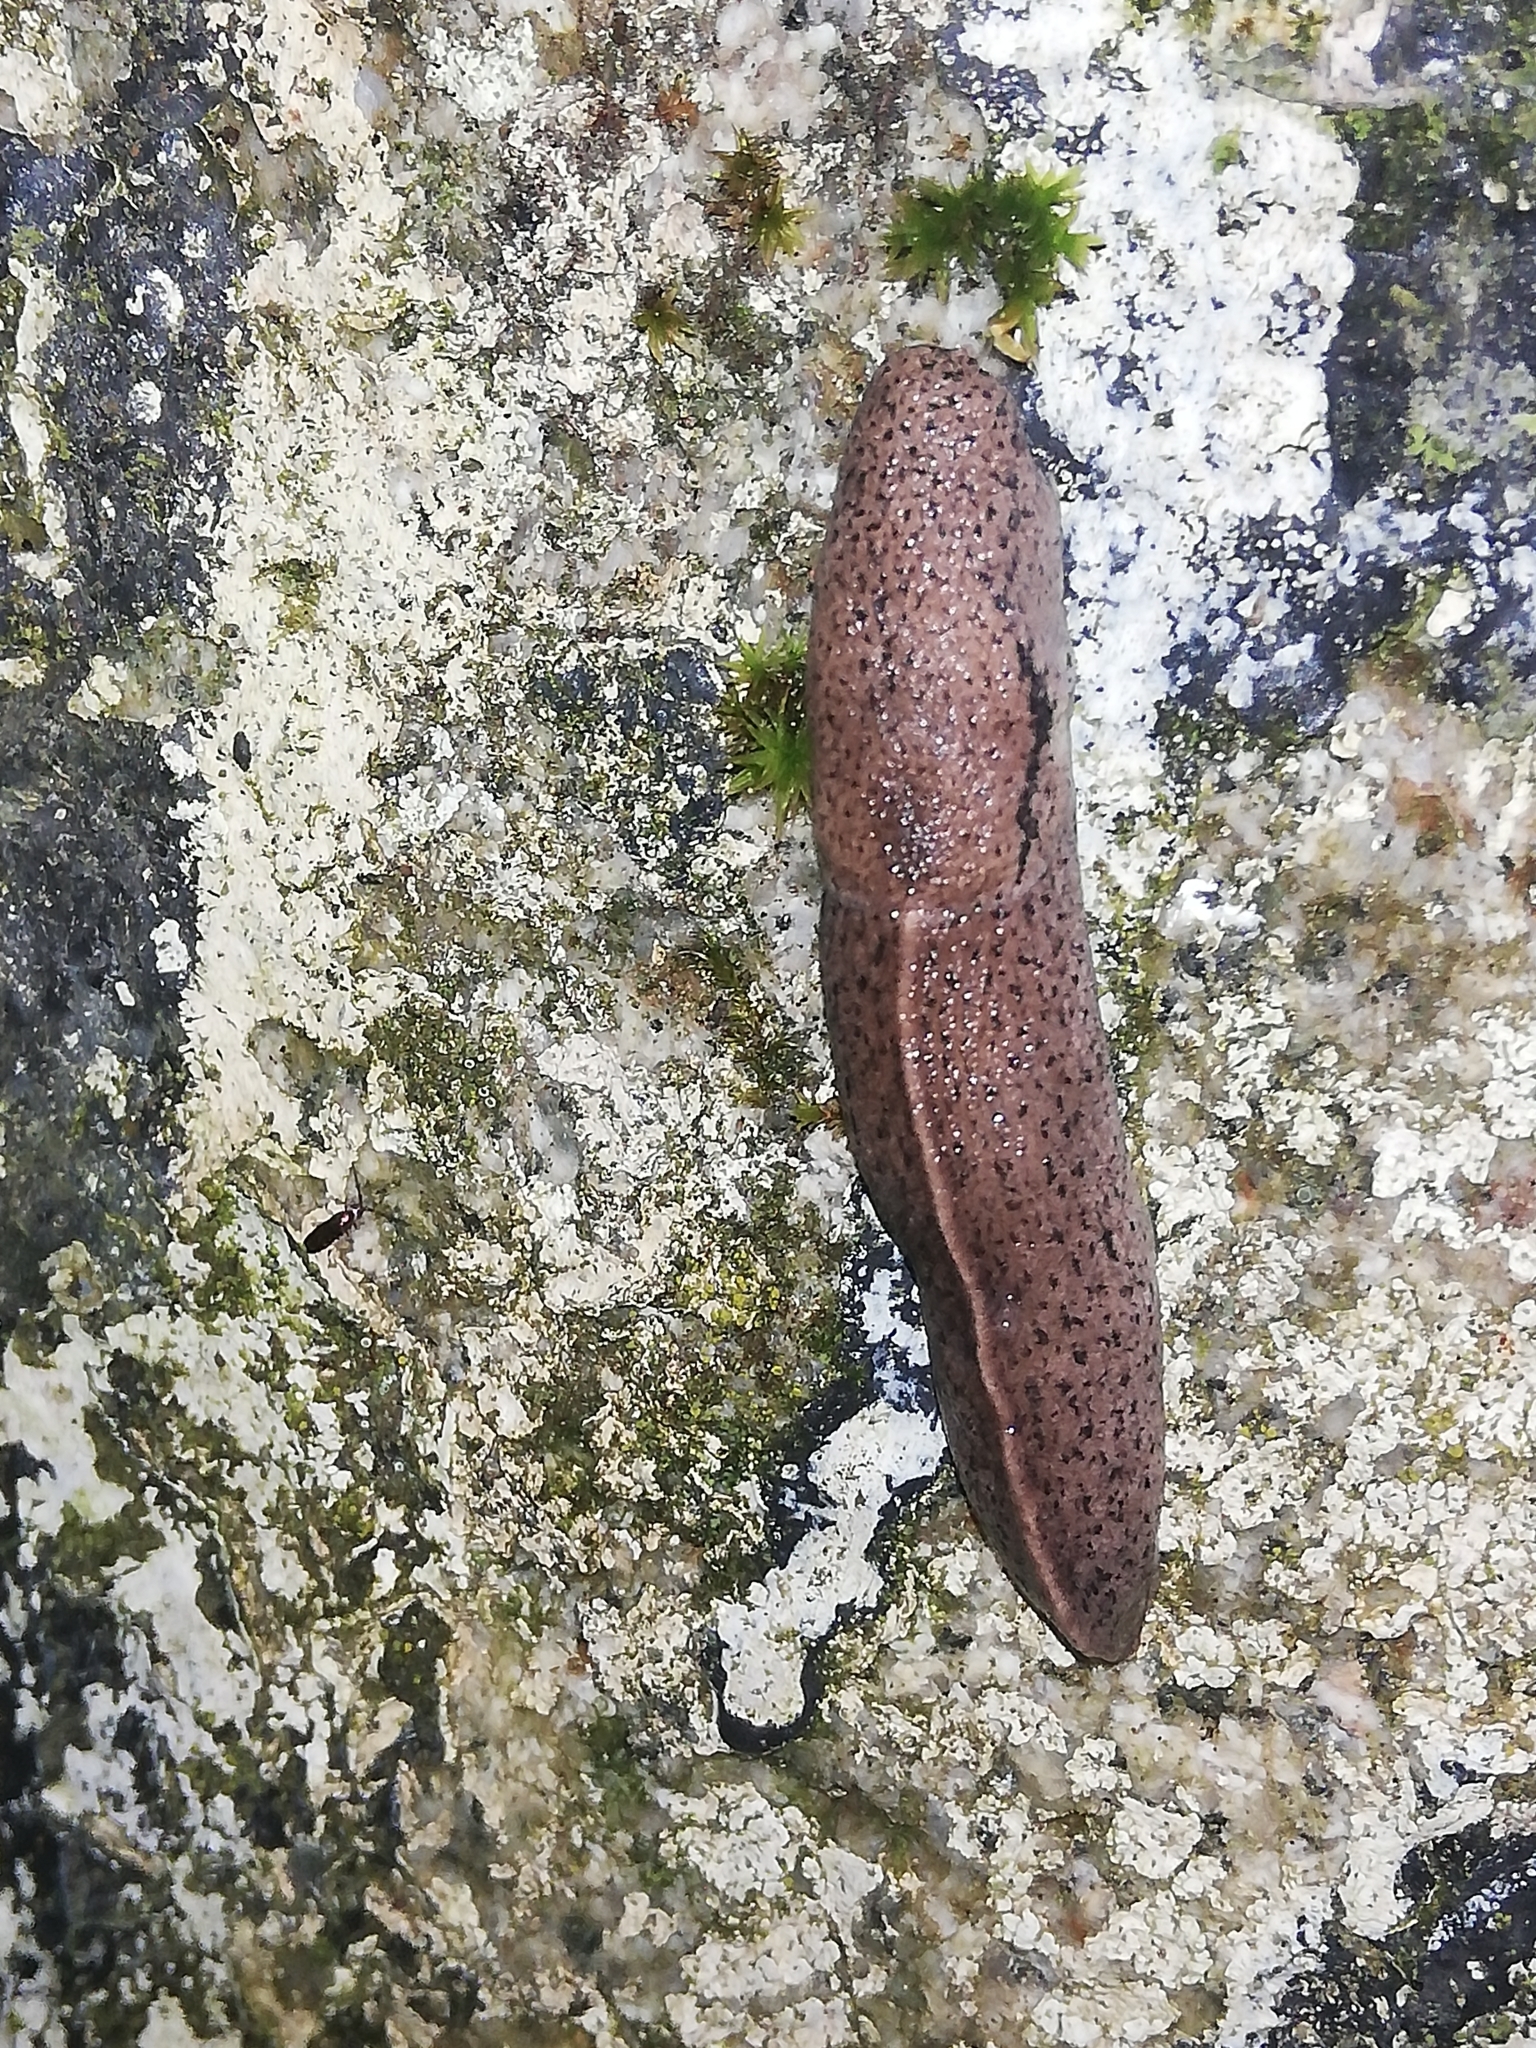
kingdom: Animalia
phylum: Mollusca
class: Gastropoda
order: Stylommatophora
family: Milacidae
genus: Tandonia
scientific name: Tandonia rustica
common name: Bulb-eating slug
